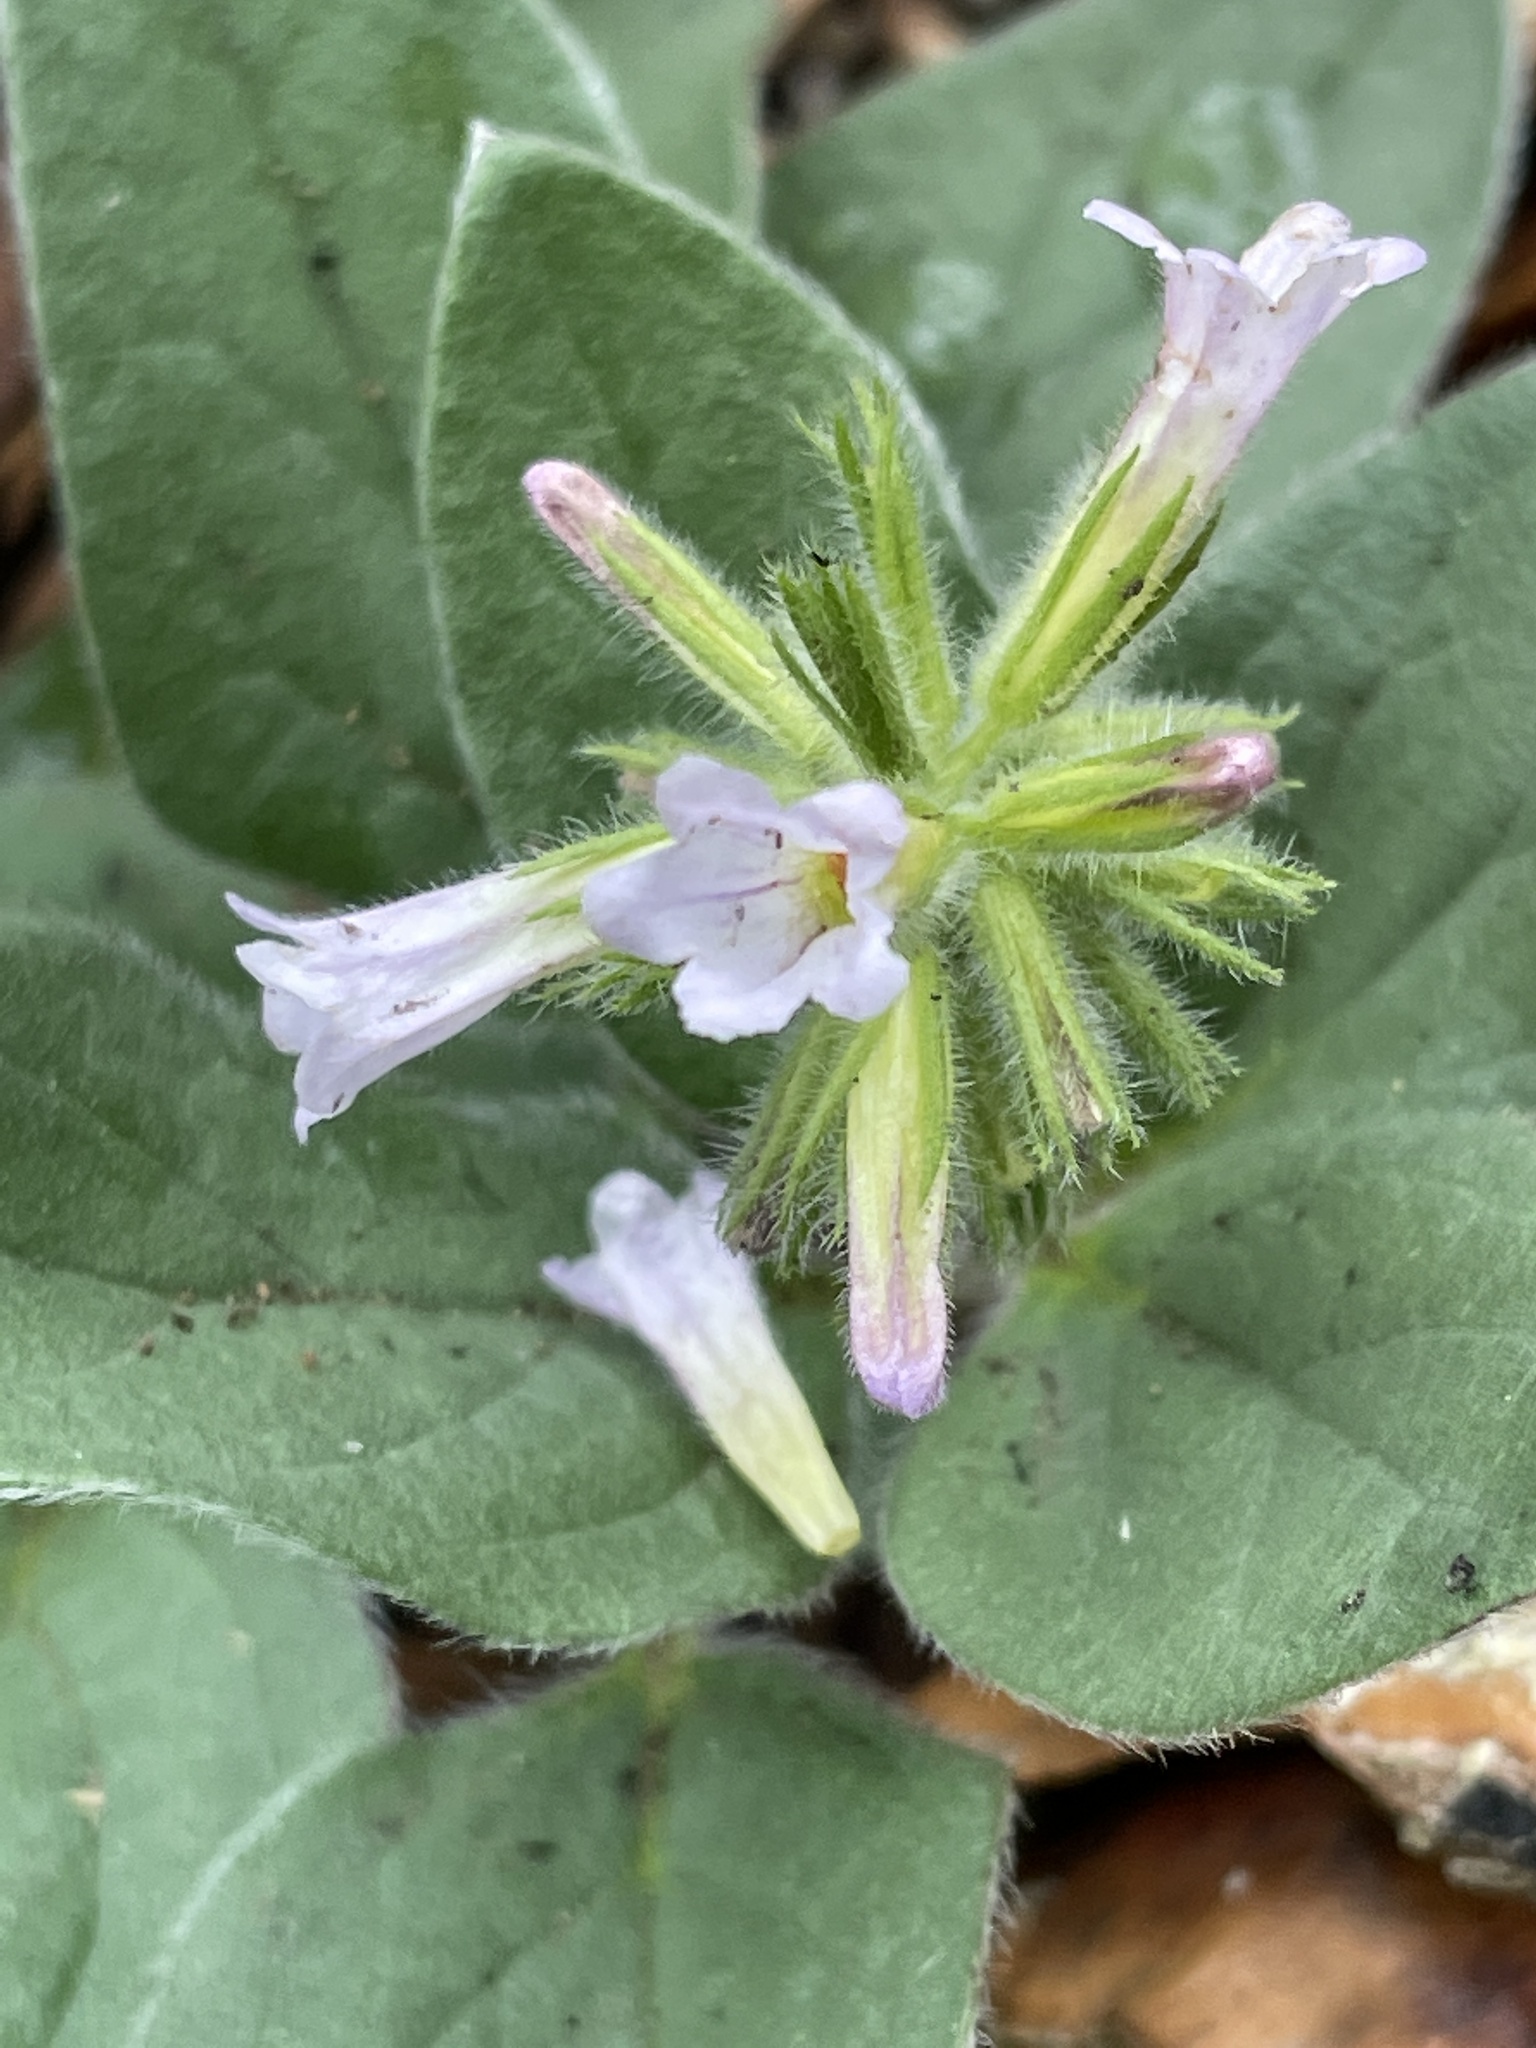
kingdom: Plantae
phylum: Tracheophyta
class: Magnoliopsida
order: Boraginales
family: Hydrophyllaceae
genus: Draperia
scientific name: Draperia systyla
